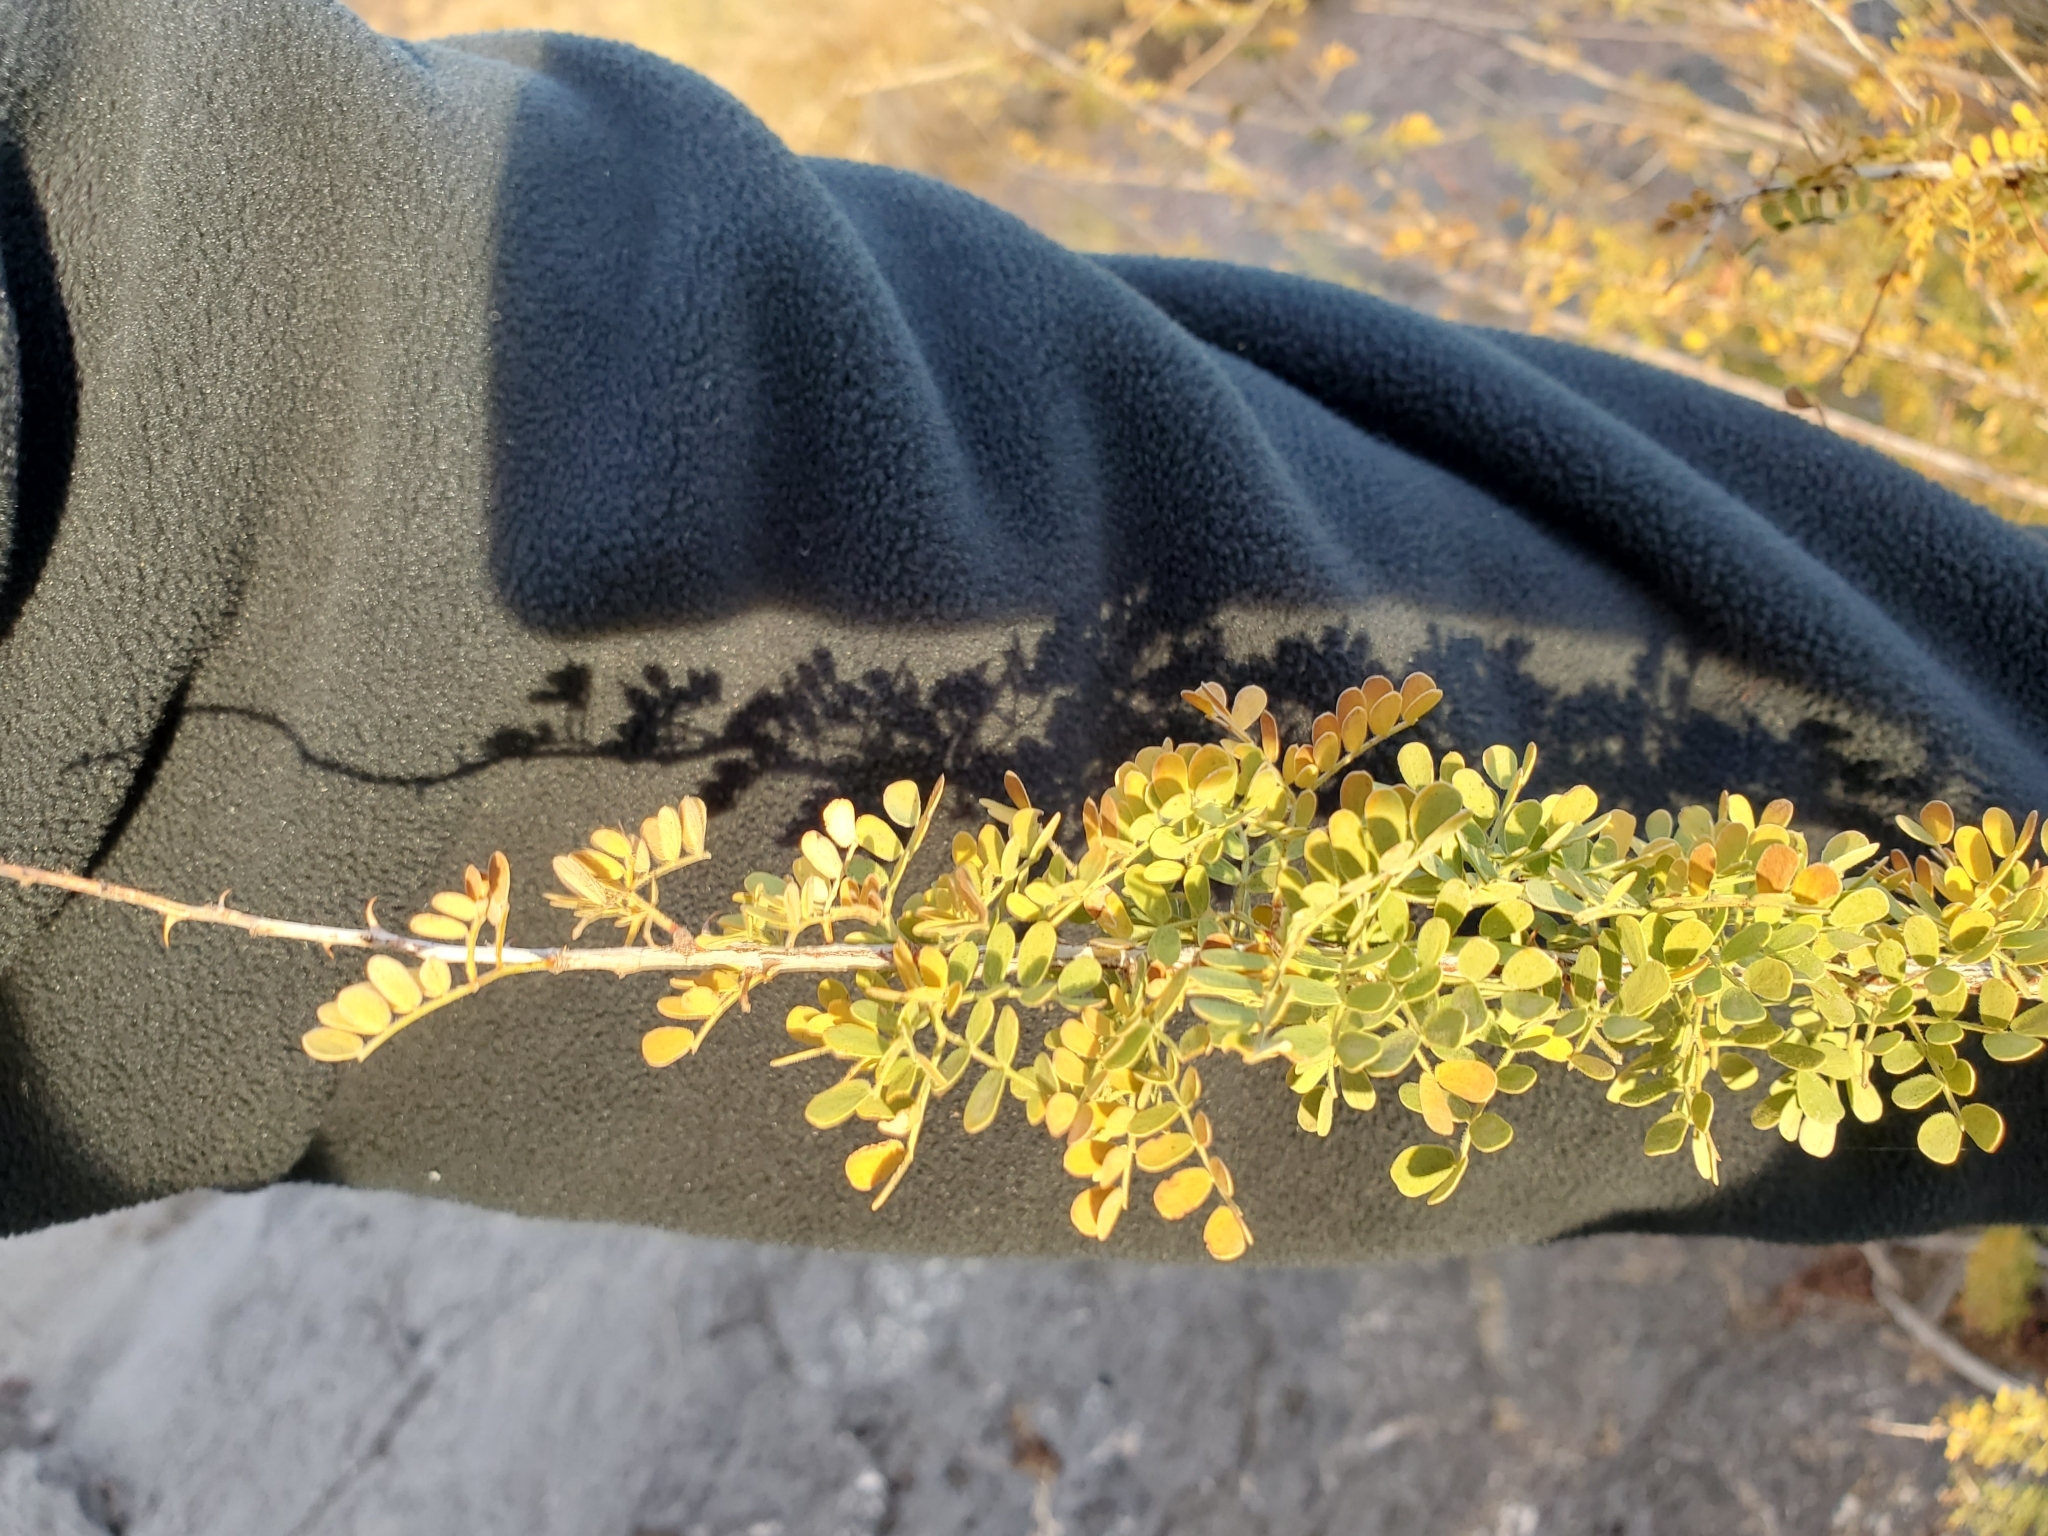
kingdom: Plantae
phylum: Tracheophyta
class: Magnoliopsida
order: Fabales
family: Fabaceae
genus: Senegalia
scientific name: Senegalia greggii
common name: Texas-mimosa
